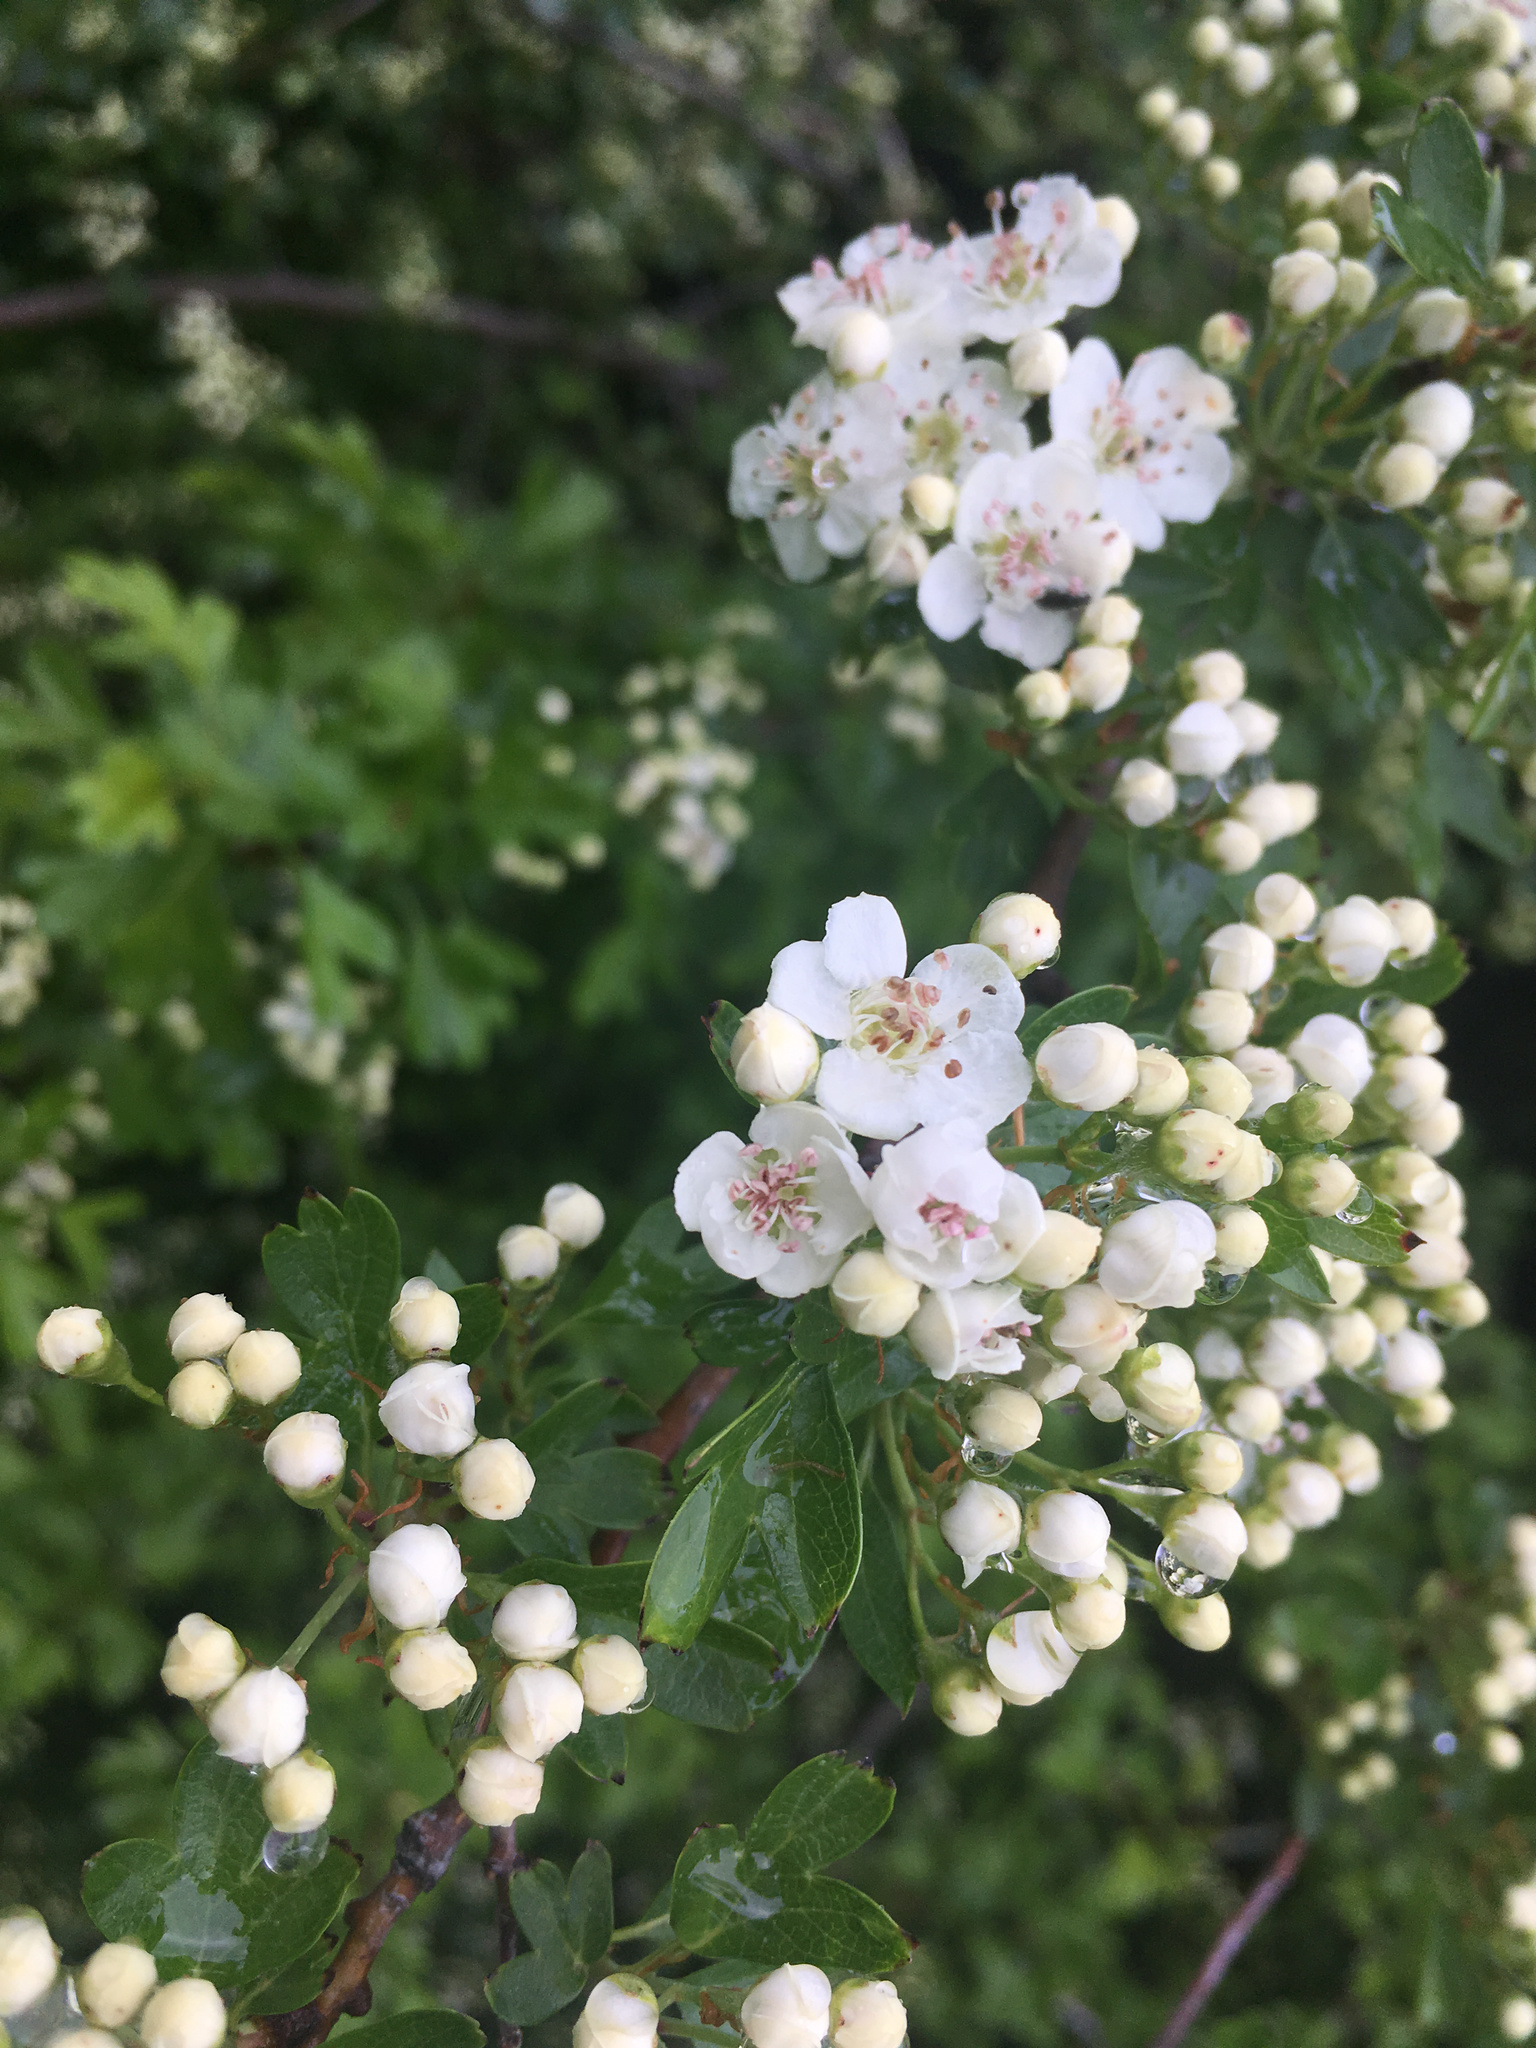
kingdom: Plantae
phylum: Tracheophyta
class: Magnoliopsida
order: Rosales
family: Rosaceae
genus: Crataegus
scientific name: Crataegus monogyna
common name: Hawthorn
